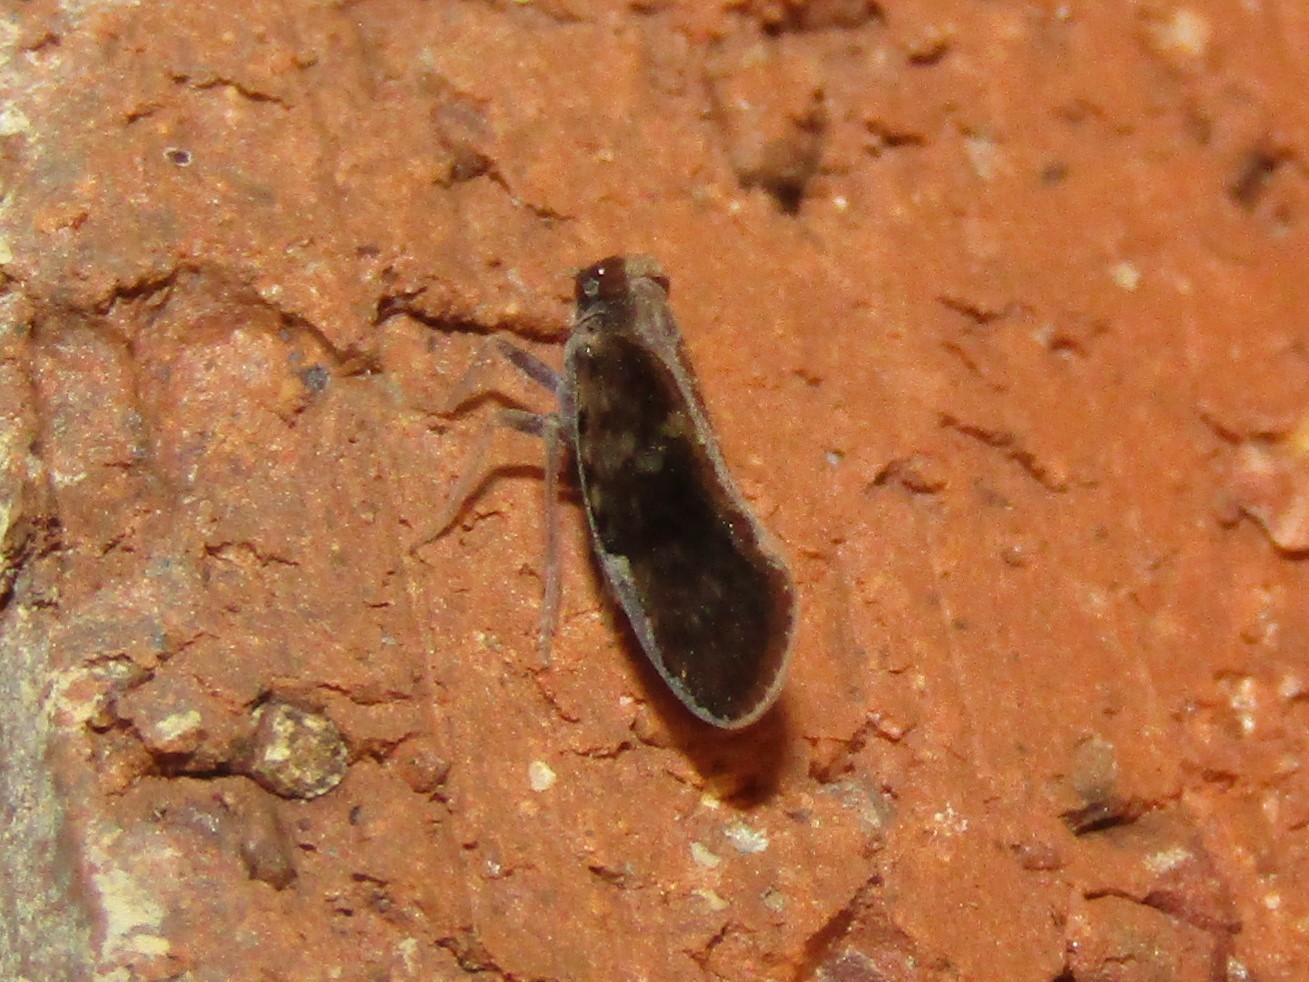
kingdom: Animalia
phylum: Arthropoda
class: Insecta
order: Hemiptera
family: Cixiidae
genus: Pintalia
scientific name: Pintalia vibex
